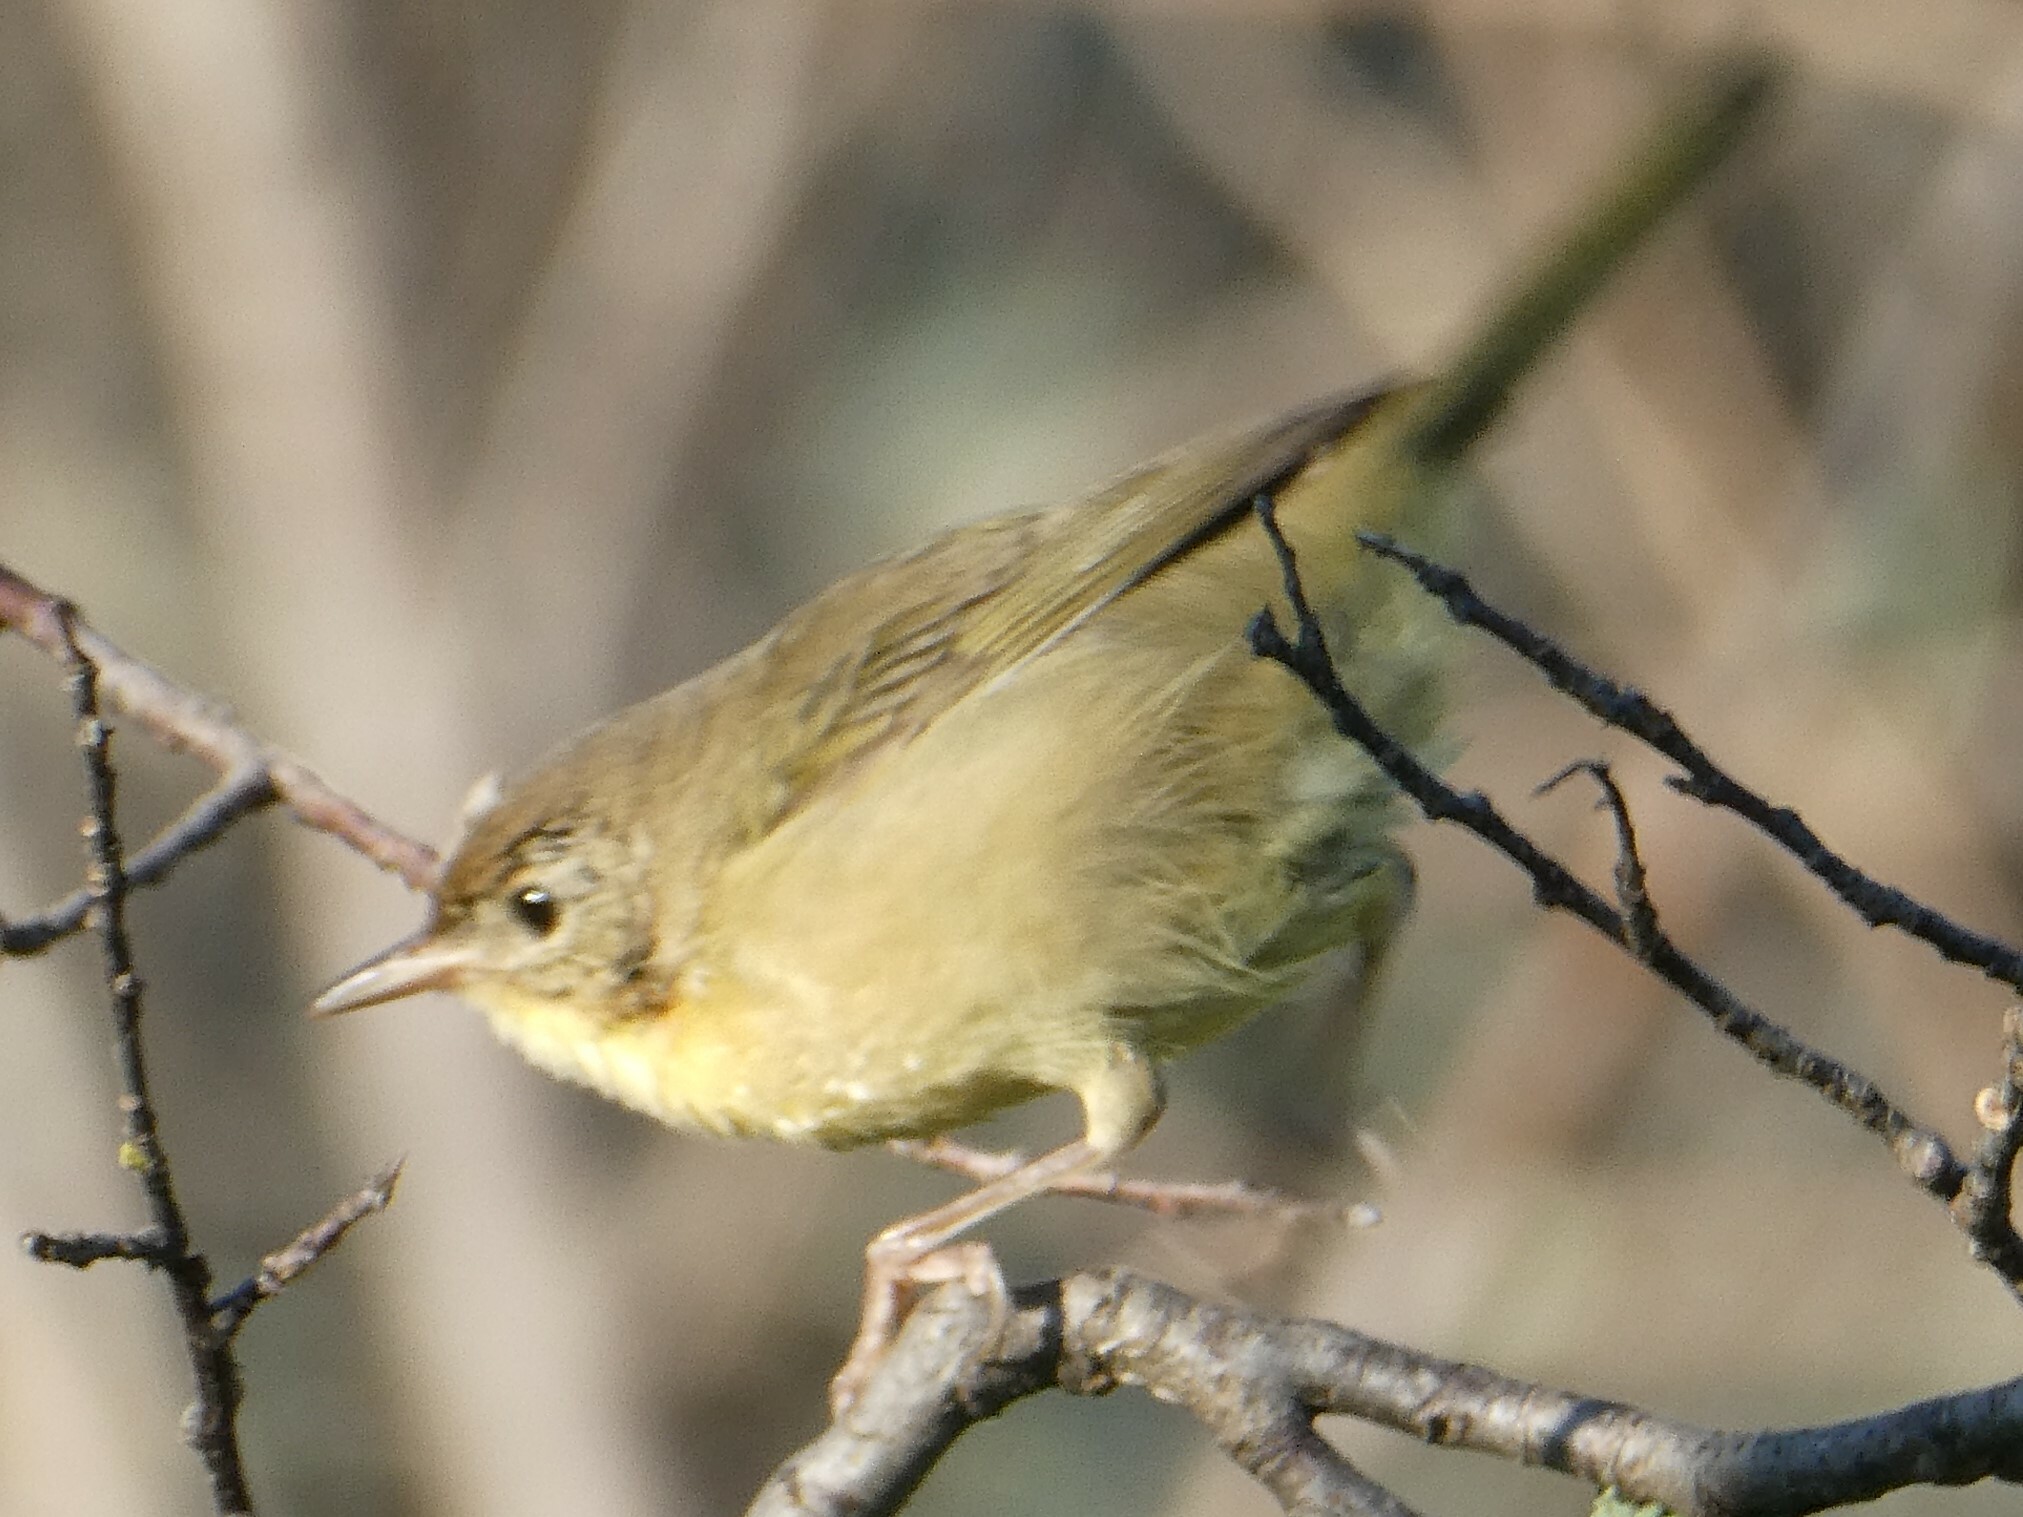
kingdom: Animalia
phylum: Chordata
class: Aves
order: Passeriformes
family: Parulidae
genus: Geothlypis
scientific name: Geothlypis trichas
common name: Common yellowthroat
